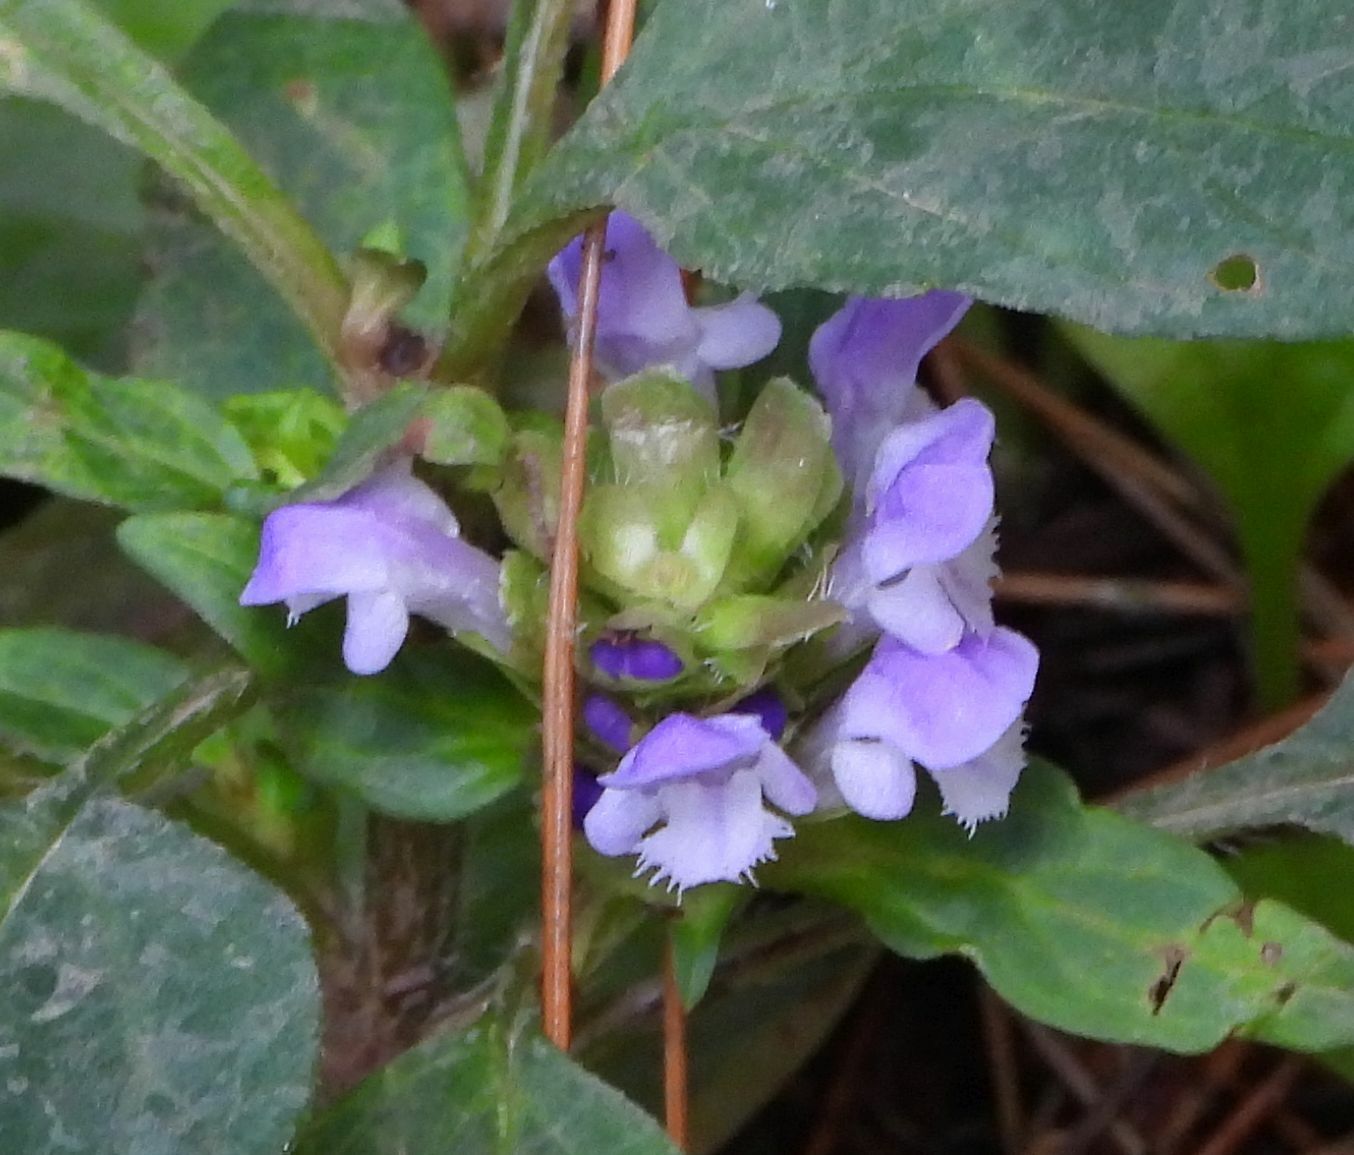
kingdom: Plantae
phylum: Tracheophyta
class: Magnoliopsida
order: Lamiales
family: Lamiaceae
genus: Prunella
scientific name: Prunella vulgaris
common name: Heal-all
